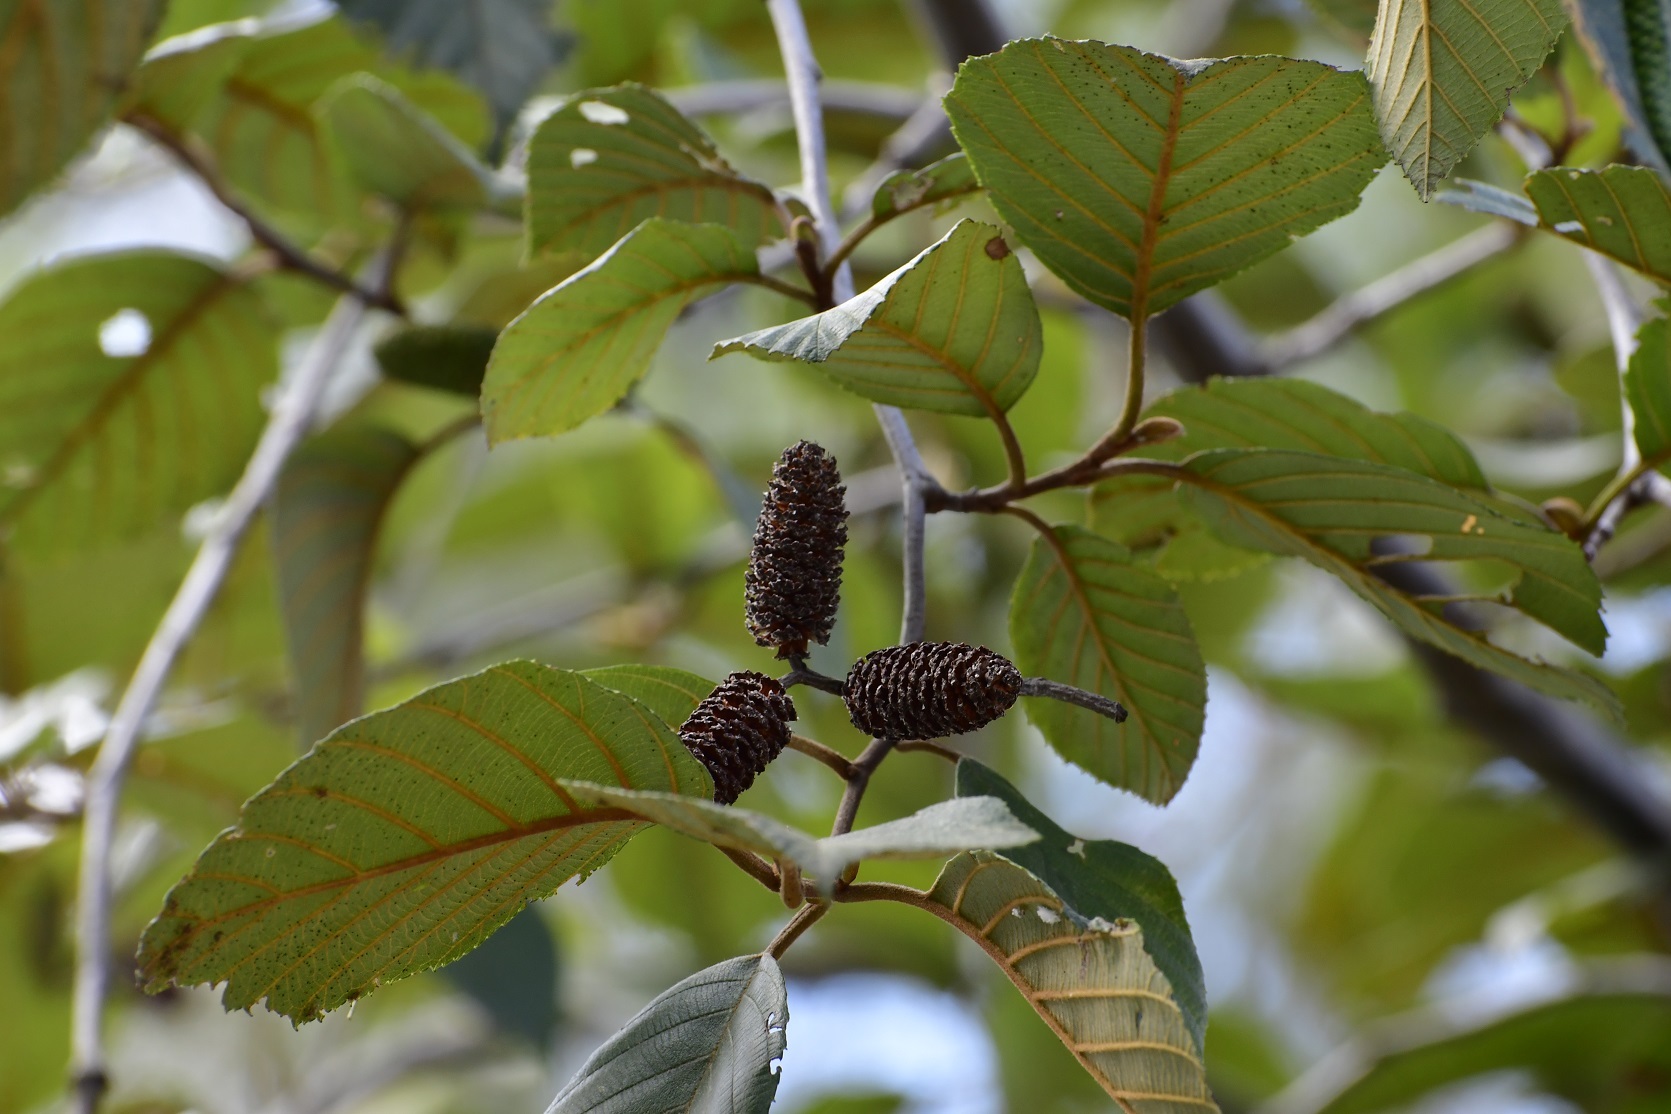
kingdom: Plantae
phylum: Tracheophyta
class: Magnoliopsida
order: Fagales
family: Betulaceae
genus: Alnus
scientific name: Alnus acuminata
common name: Alder
